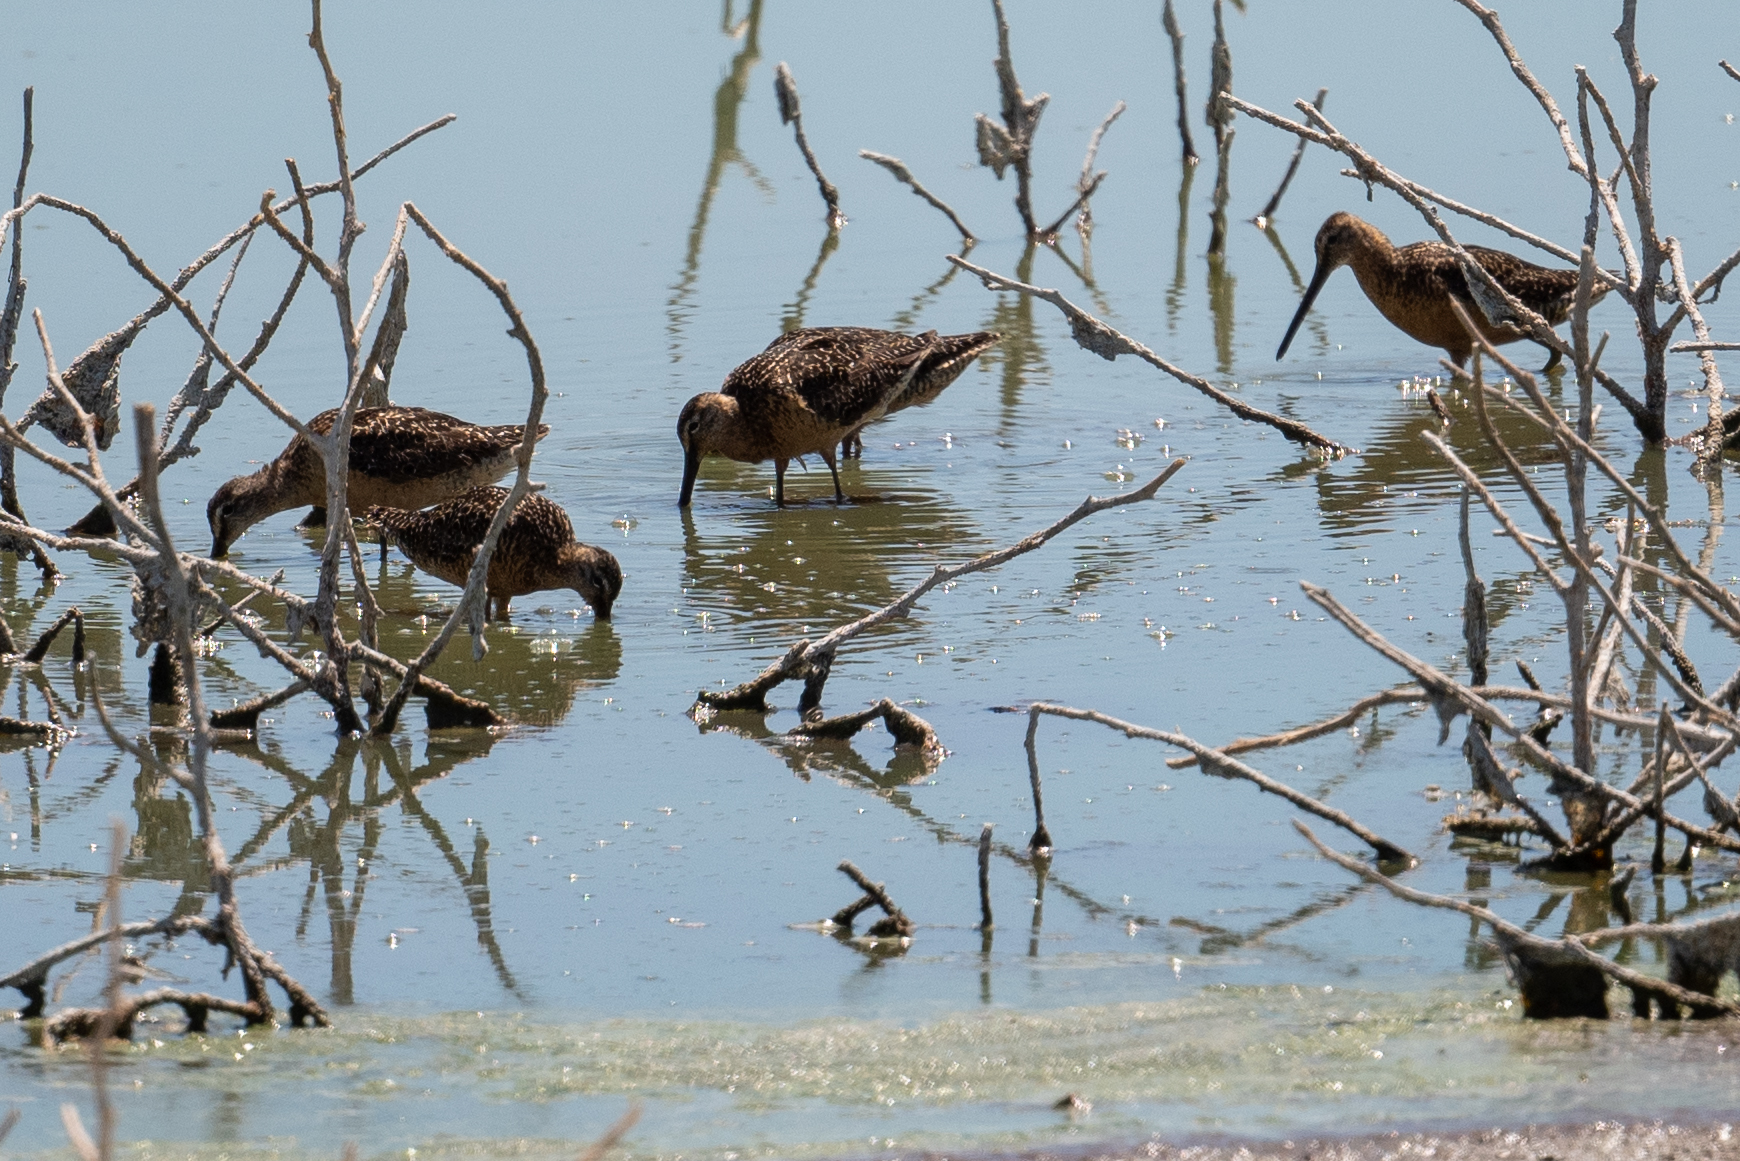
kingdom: Animalia
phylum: Chordata
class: Aves
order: Charadriiformes
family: Scolopacidae
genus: Limnodromus
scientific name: Limnodromus scolopaceus
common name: Long-billed dowitcher
